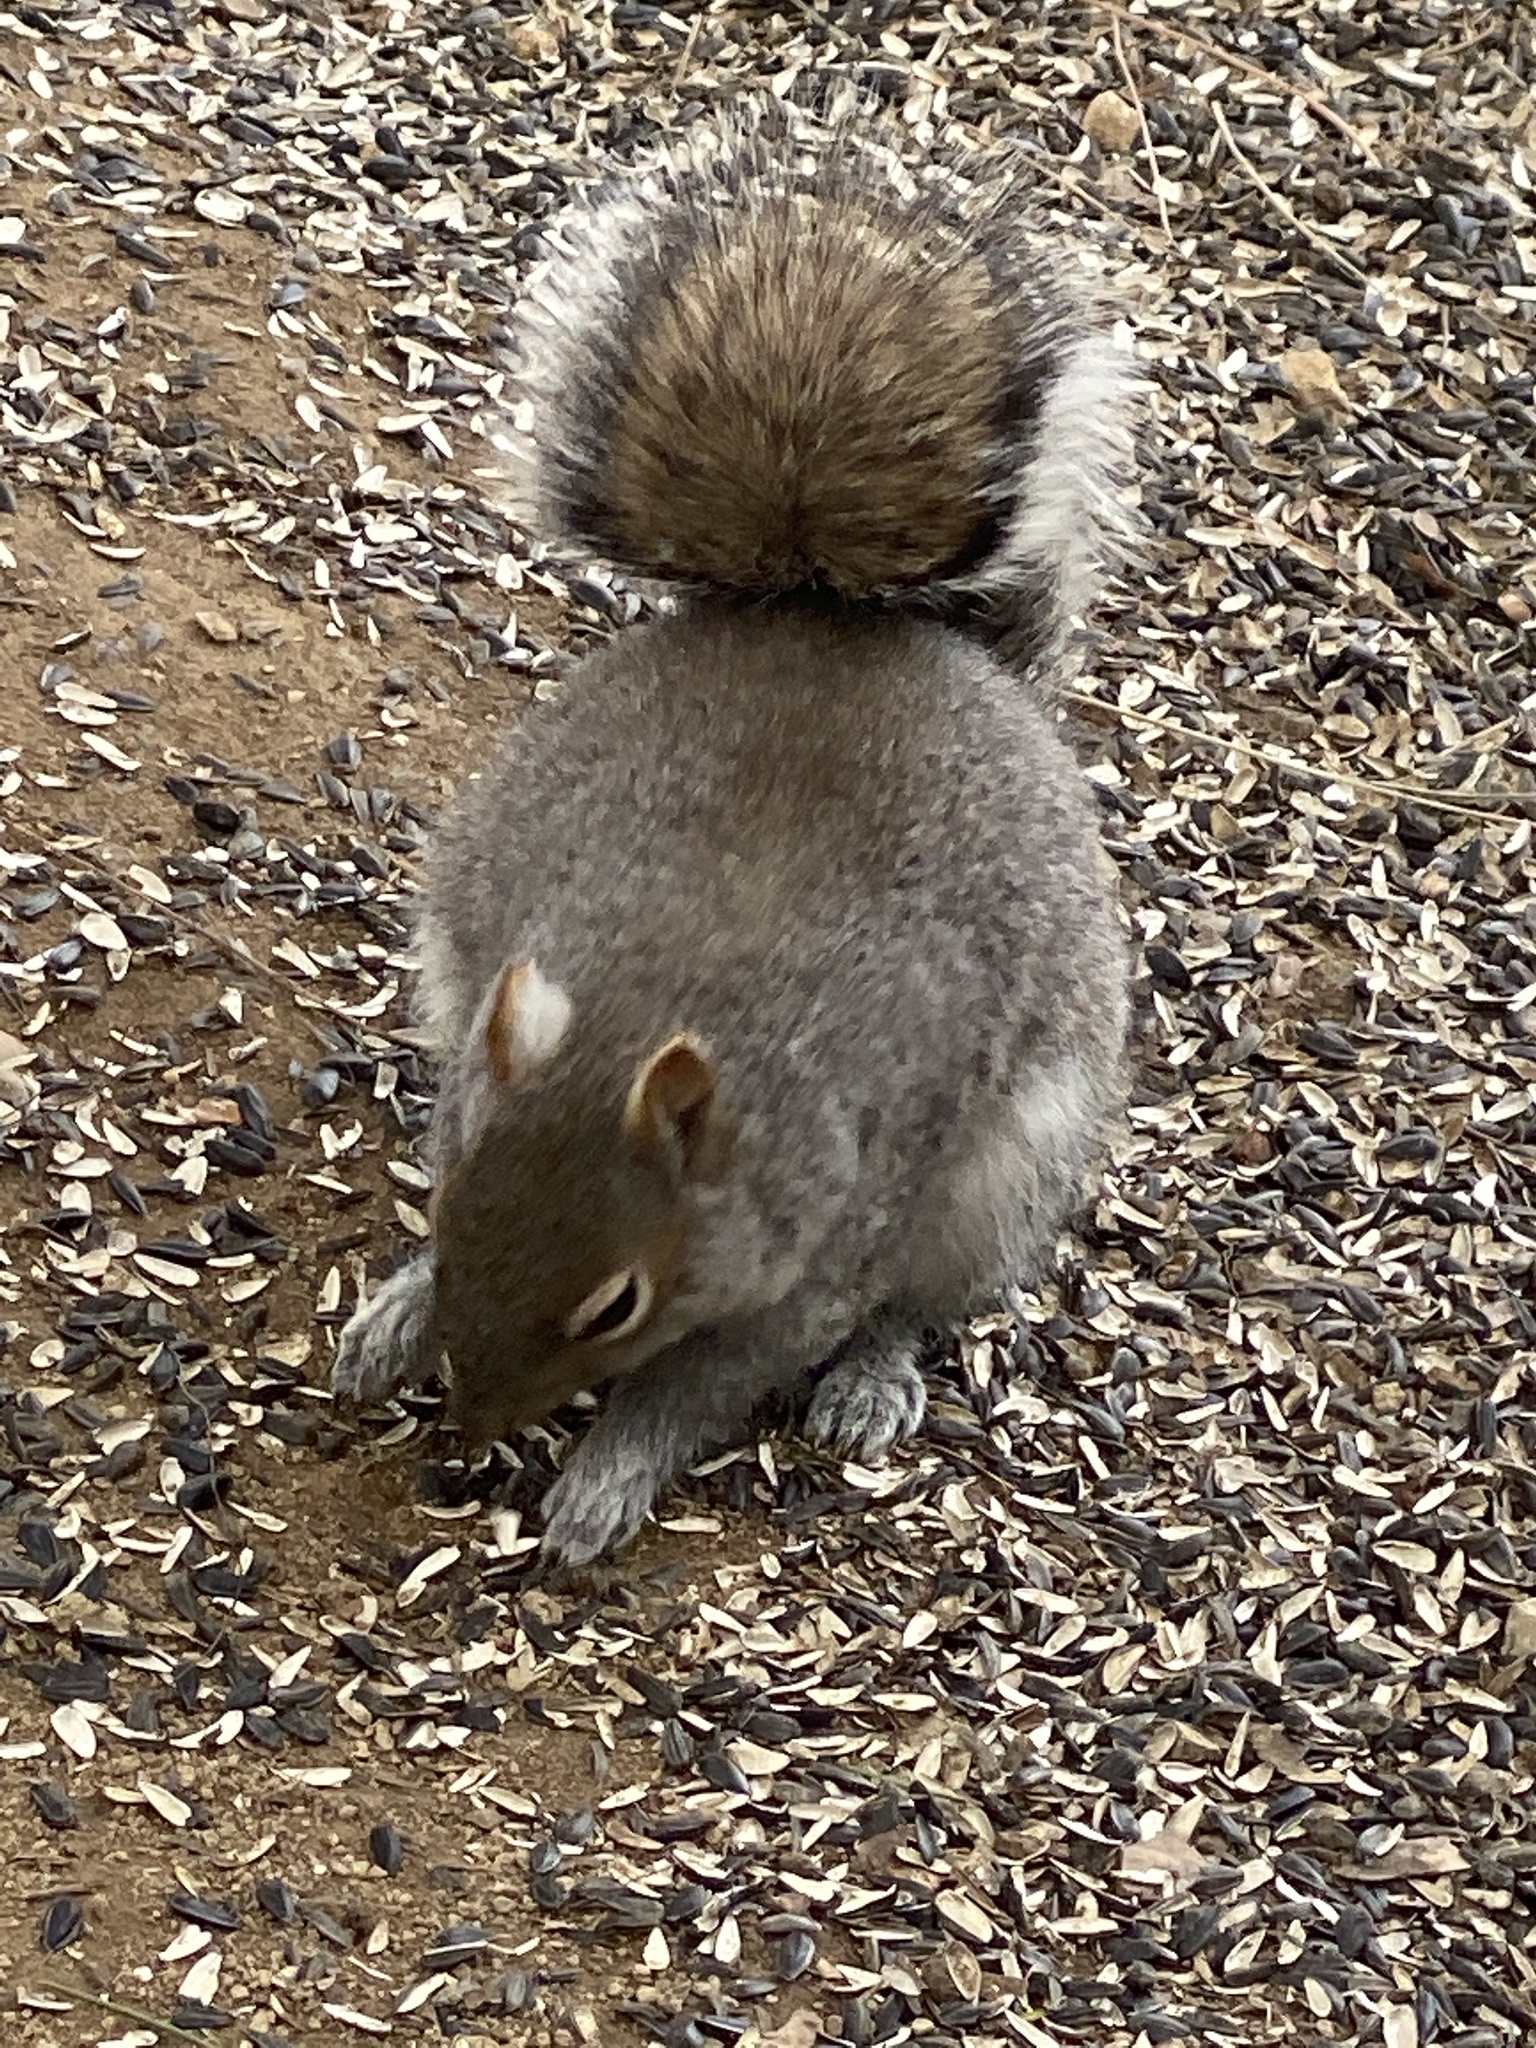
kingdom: Animalia
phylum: Chordata
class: Mammalia
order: Rodentia
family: Sciuridae
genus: Sciurus
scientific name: Sciurus carolinensis
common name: Eastern gray squirrel
